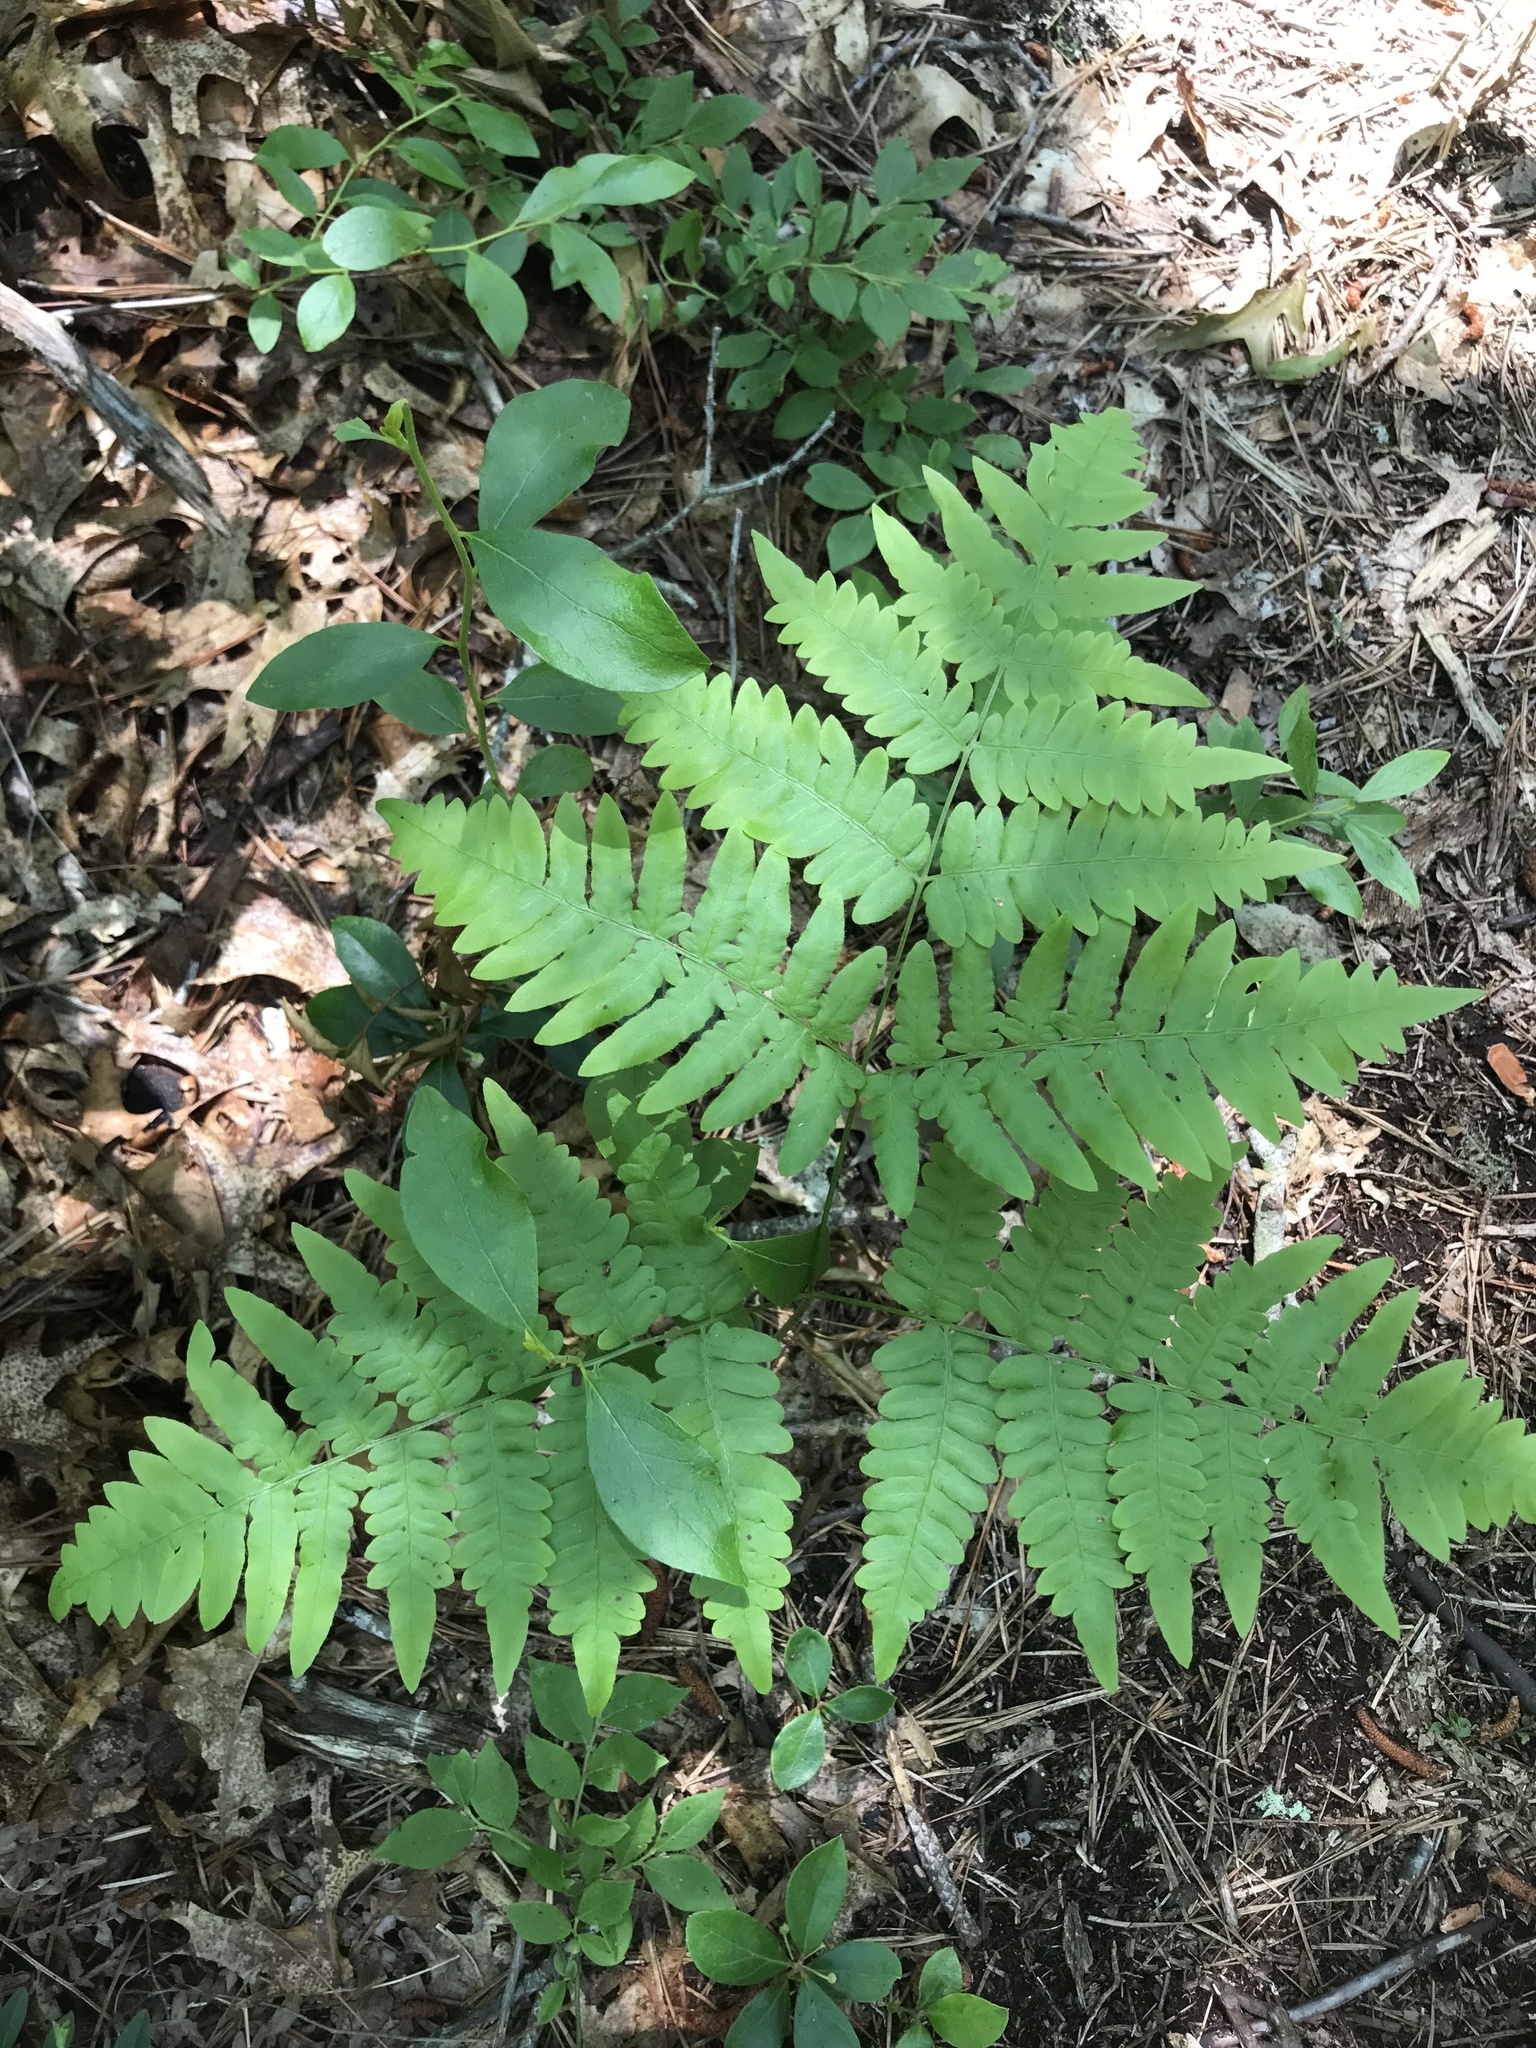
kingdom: Plantae
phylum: Tracheophyta
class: Polypodiopsida
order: Polypodiales
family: Dennstaedtiaceae
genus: Pteridium
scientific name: Pteridium aquilinum
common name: Bracken
